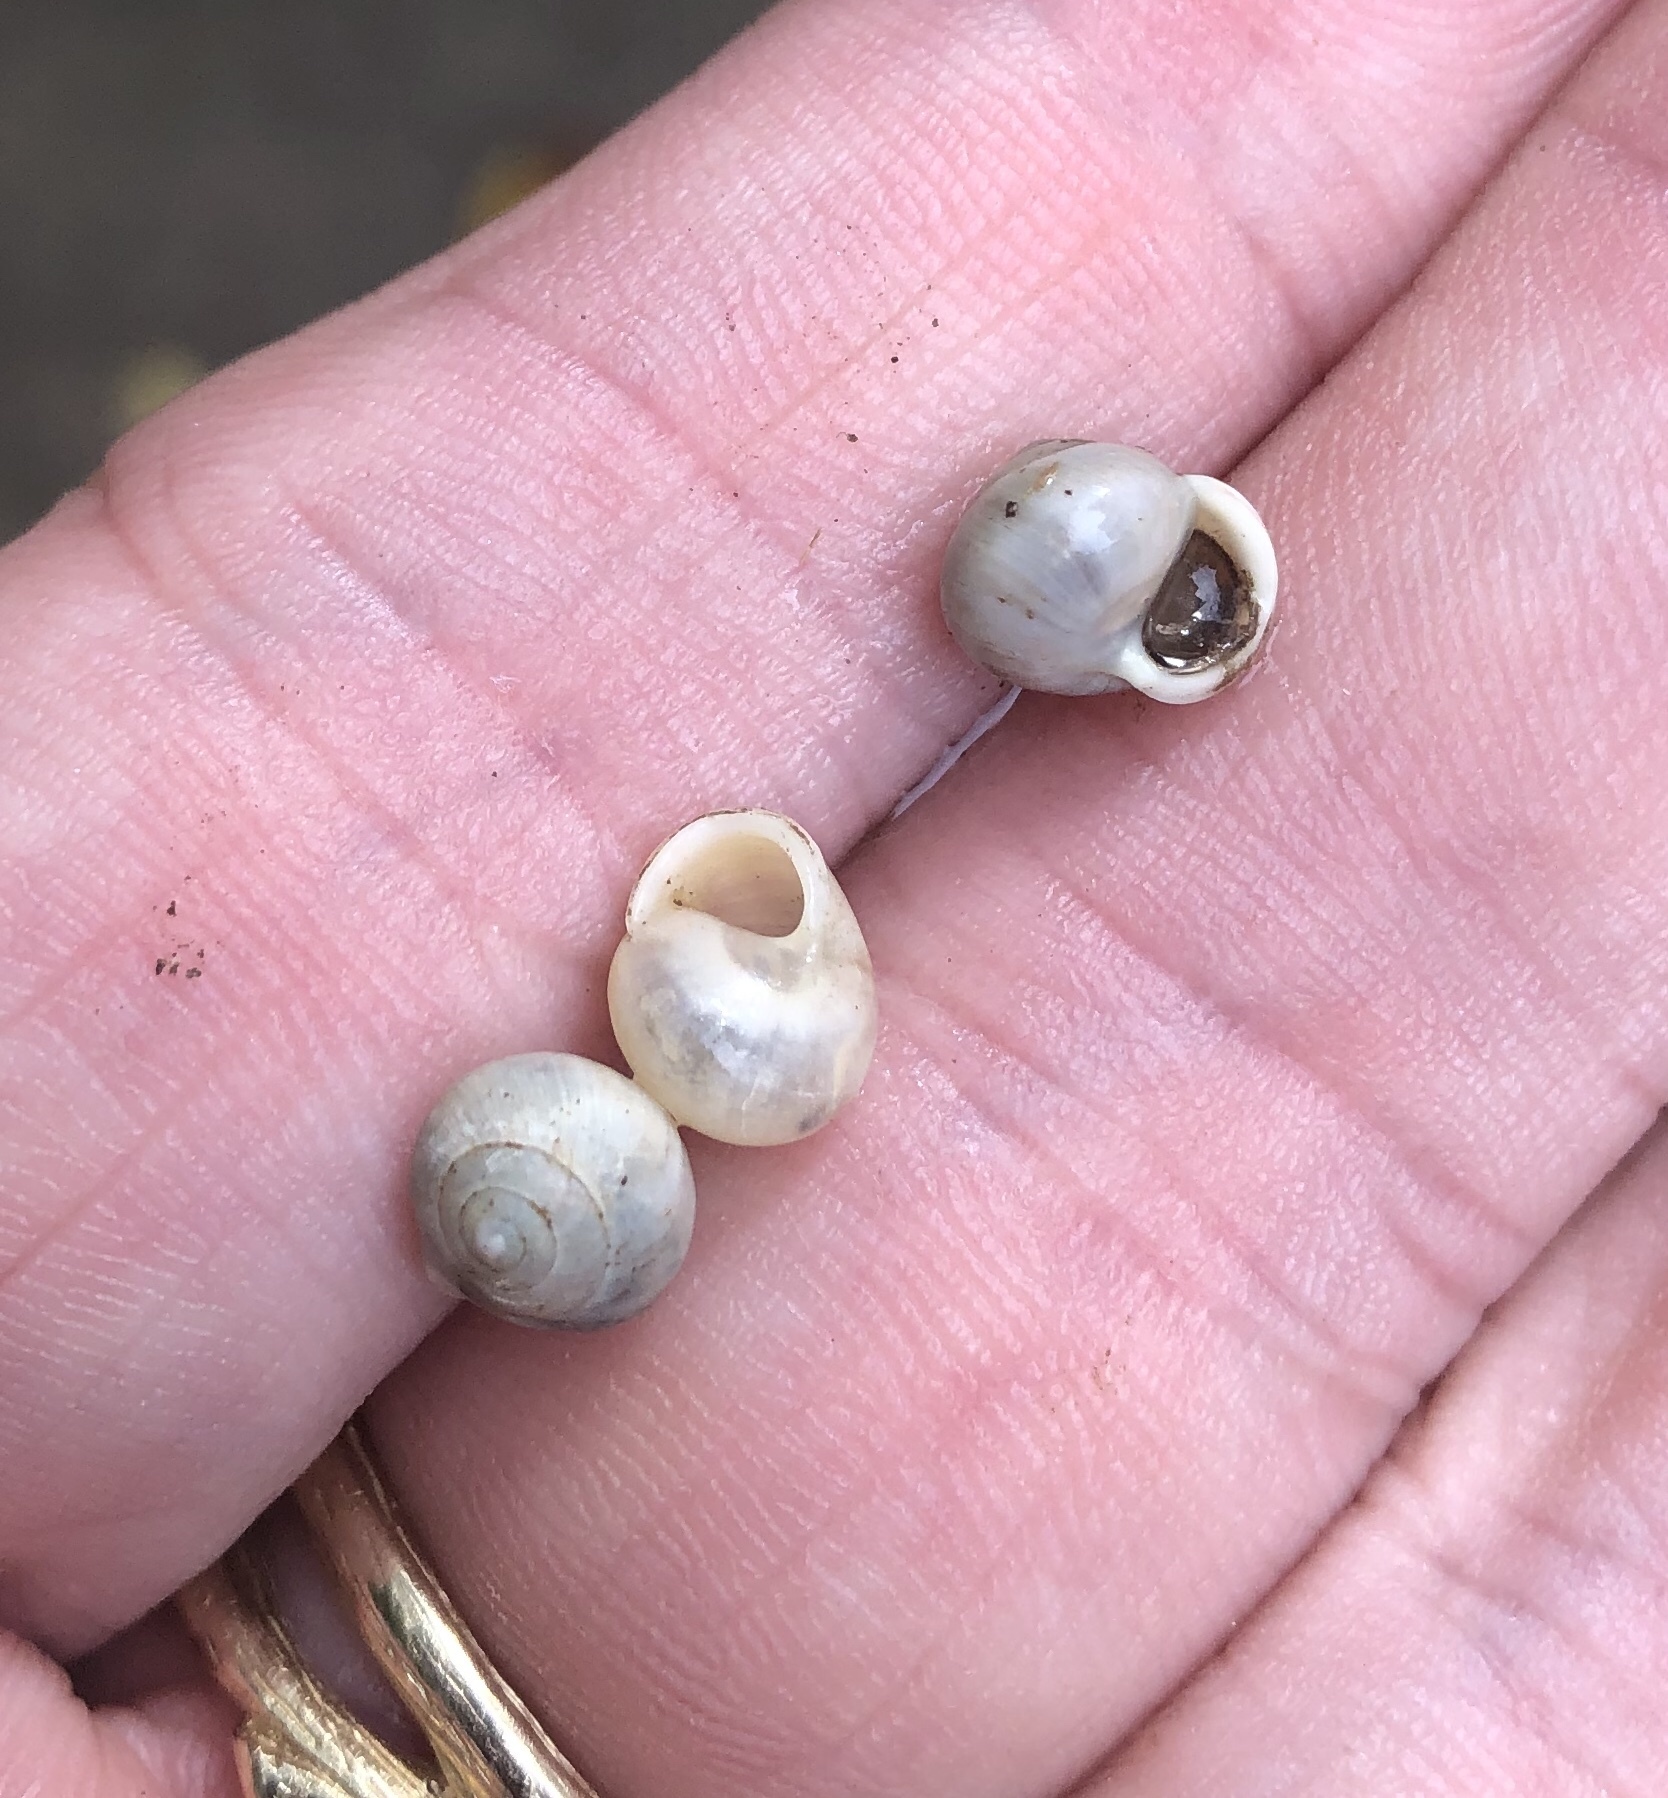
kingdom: Animalia
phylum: Mollusca
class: Gastropoda
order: Cycloneritida
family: Helicinidae
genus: Helicina
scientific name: Helicina orbiculata
